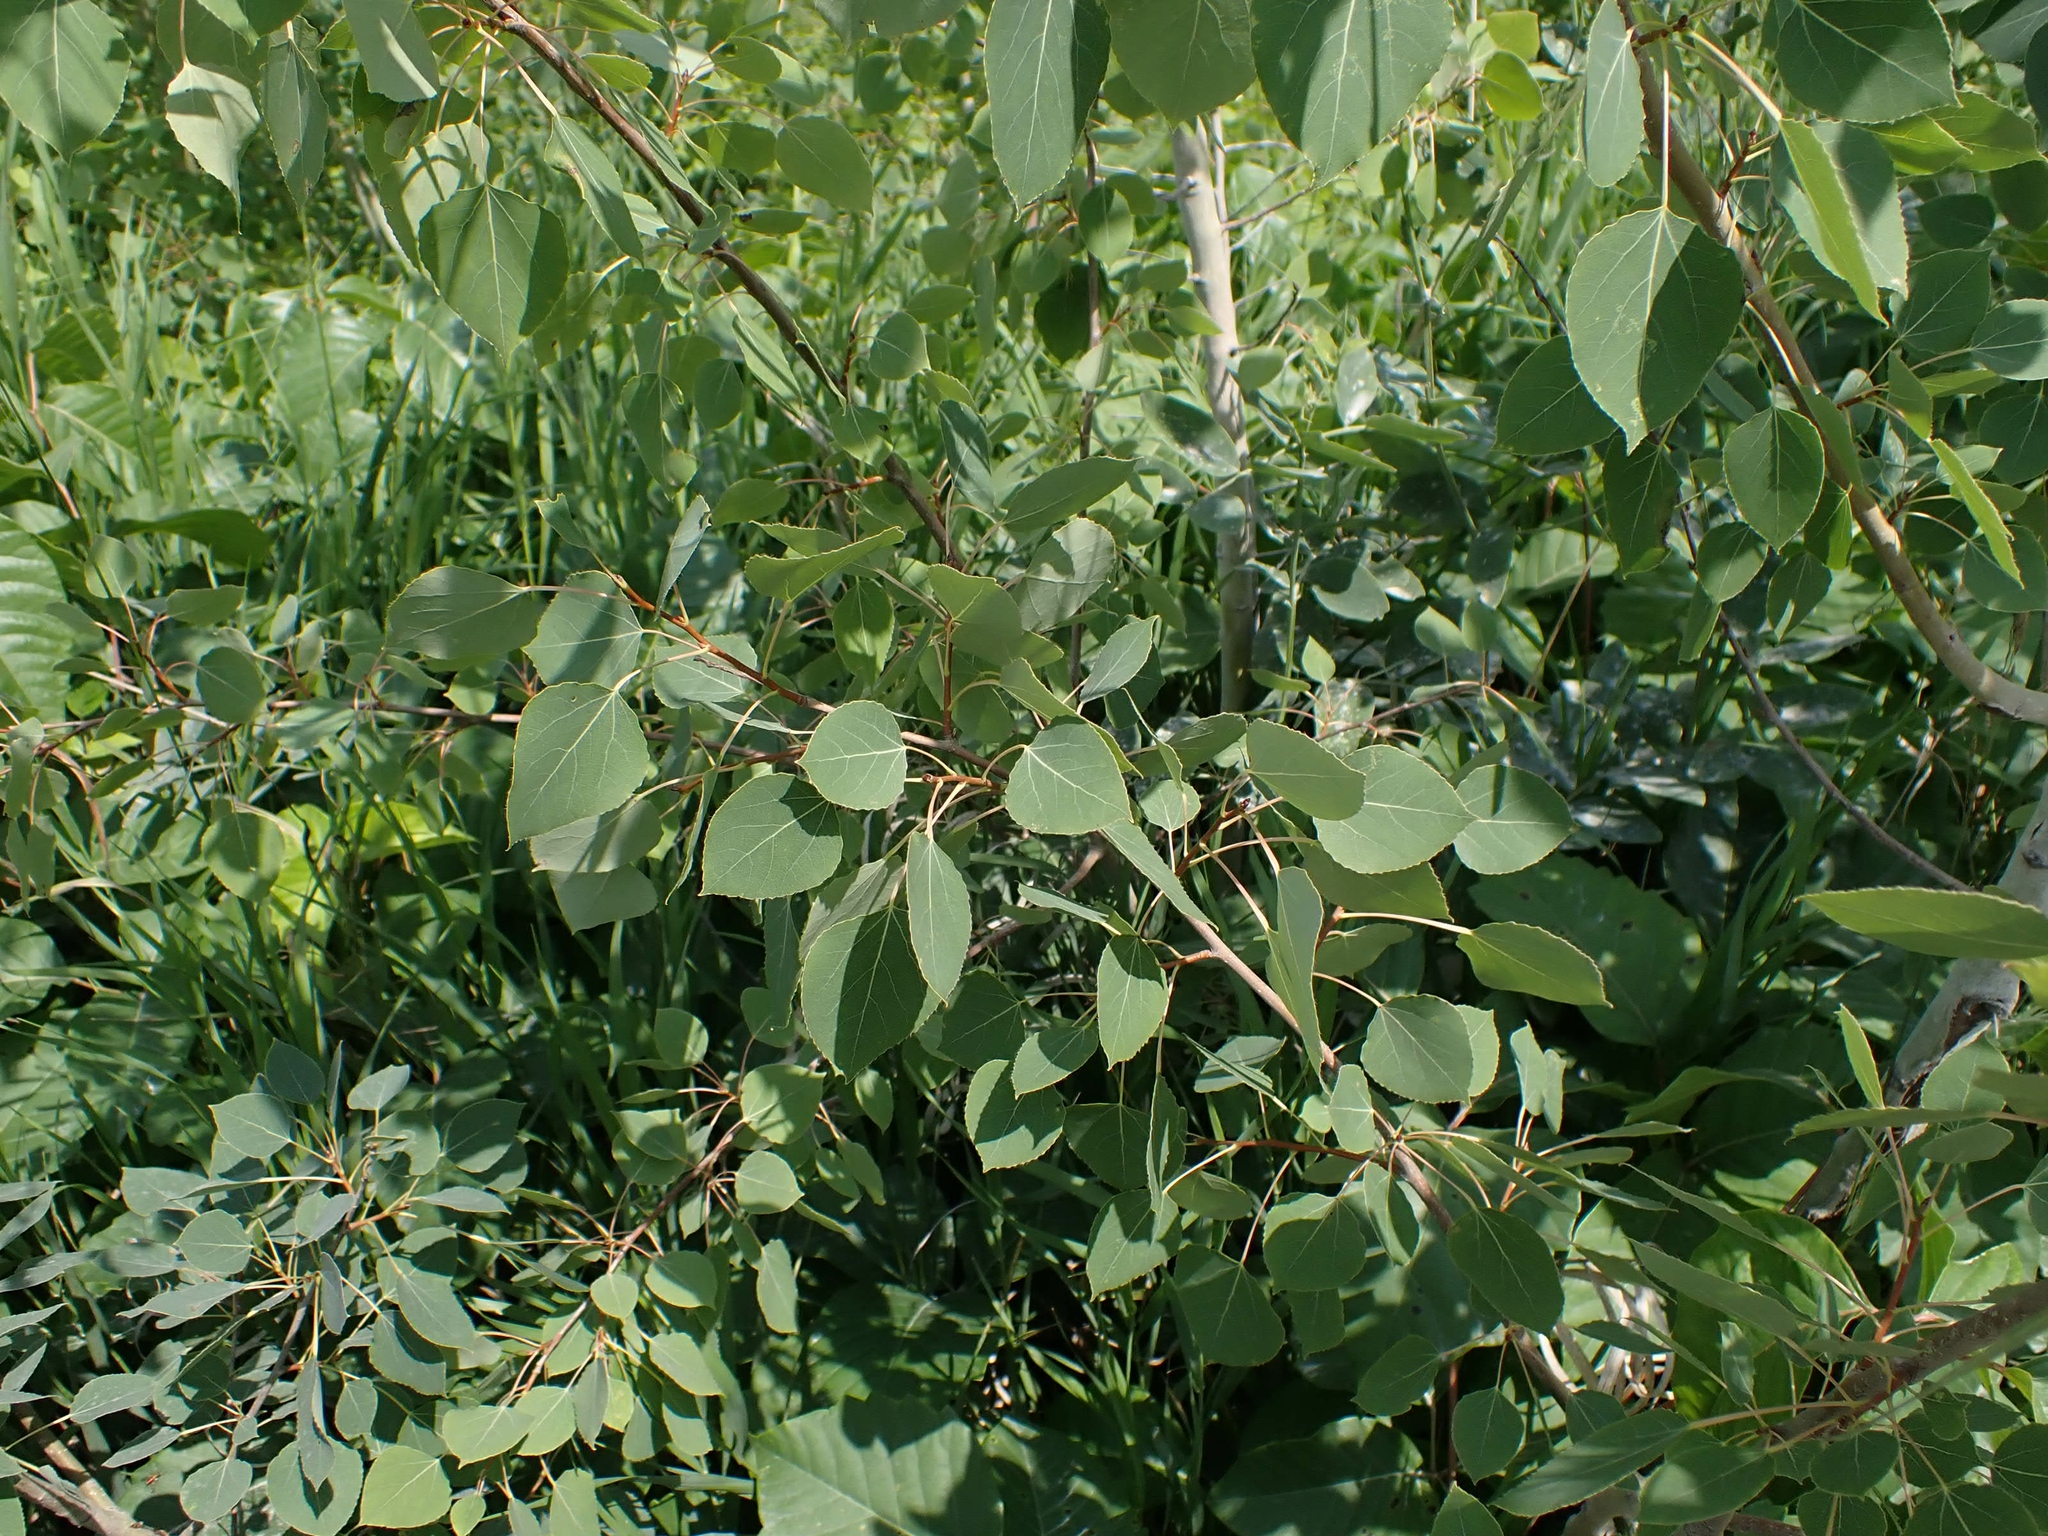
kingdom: Plantae
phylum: Tracheophyta
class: Magnoliopsida
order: Malpighiales
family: Salicaceae
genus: Populus
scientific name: Populus tremuloides
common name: Quaking aspen
